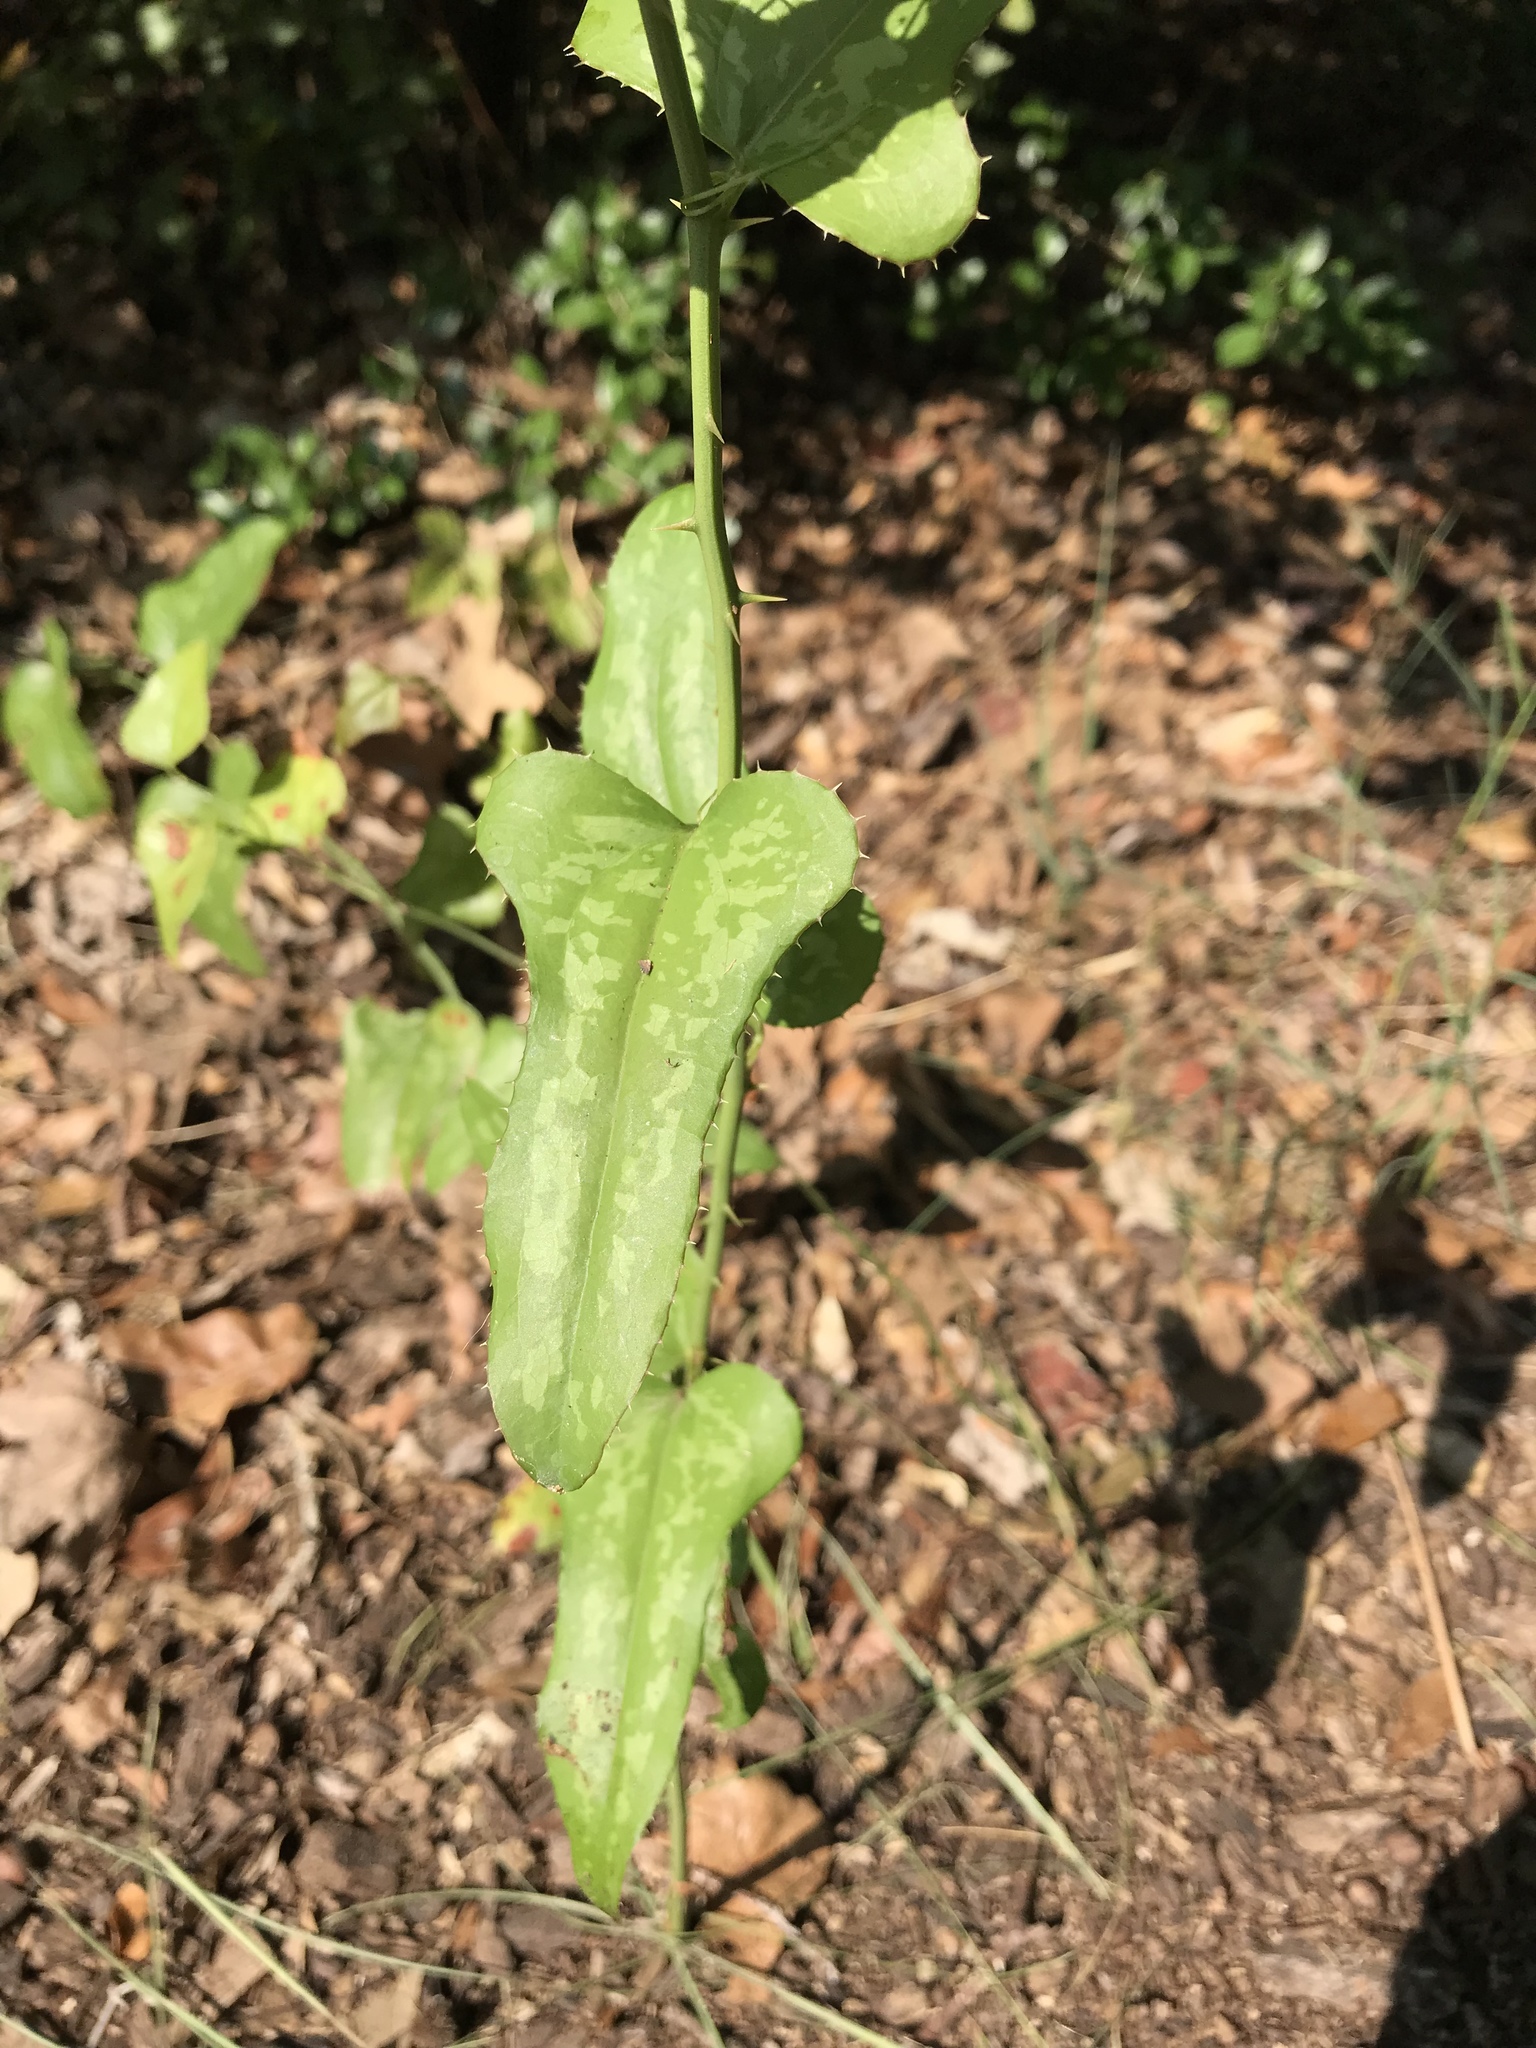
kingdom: Plantae
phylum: Tracheophyta
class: Liliopsida
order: Liliales
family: Smilacaceae
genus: Smilax
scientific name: Smilax bona-nox
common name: Catbrier
